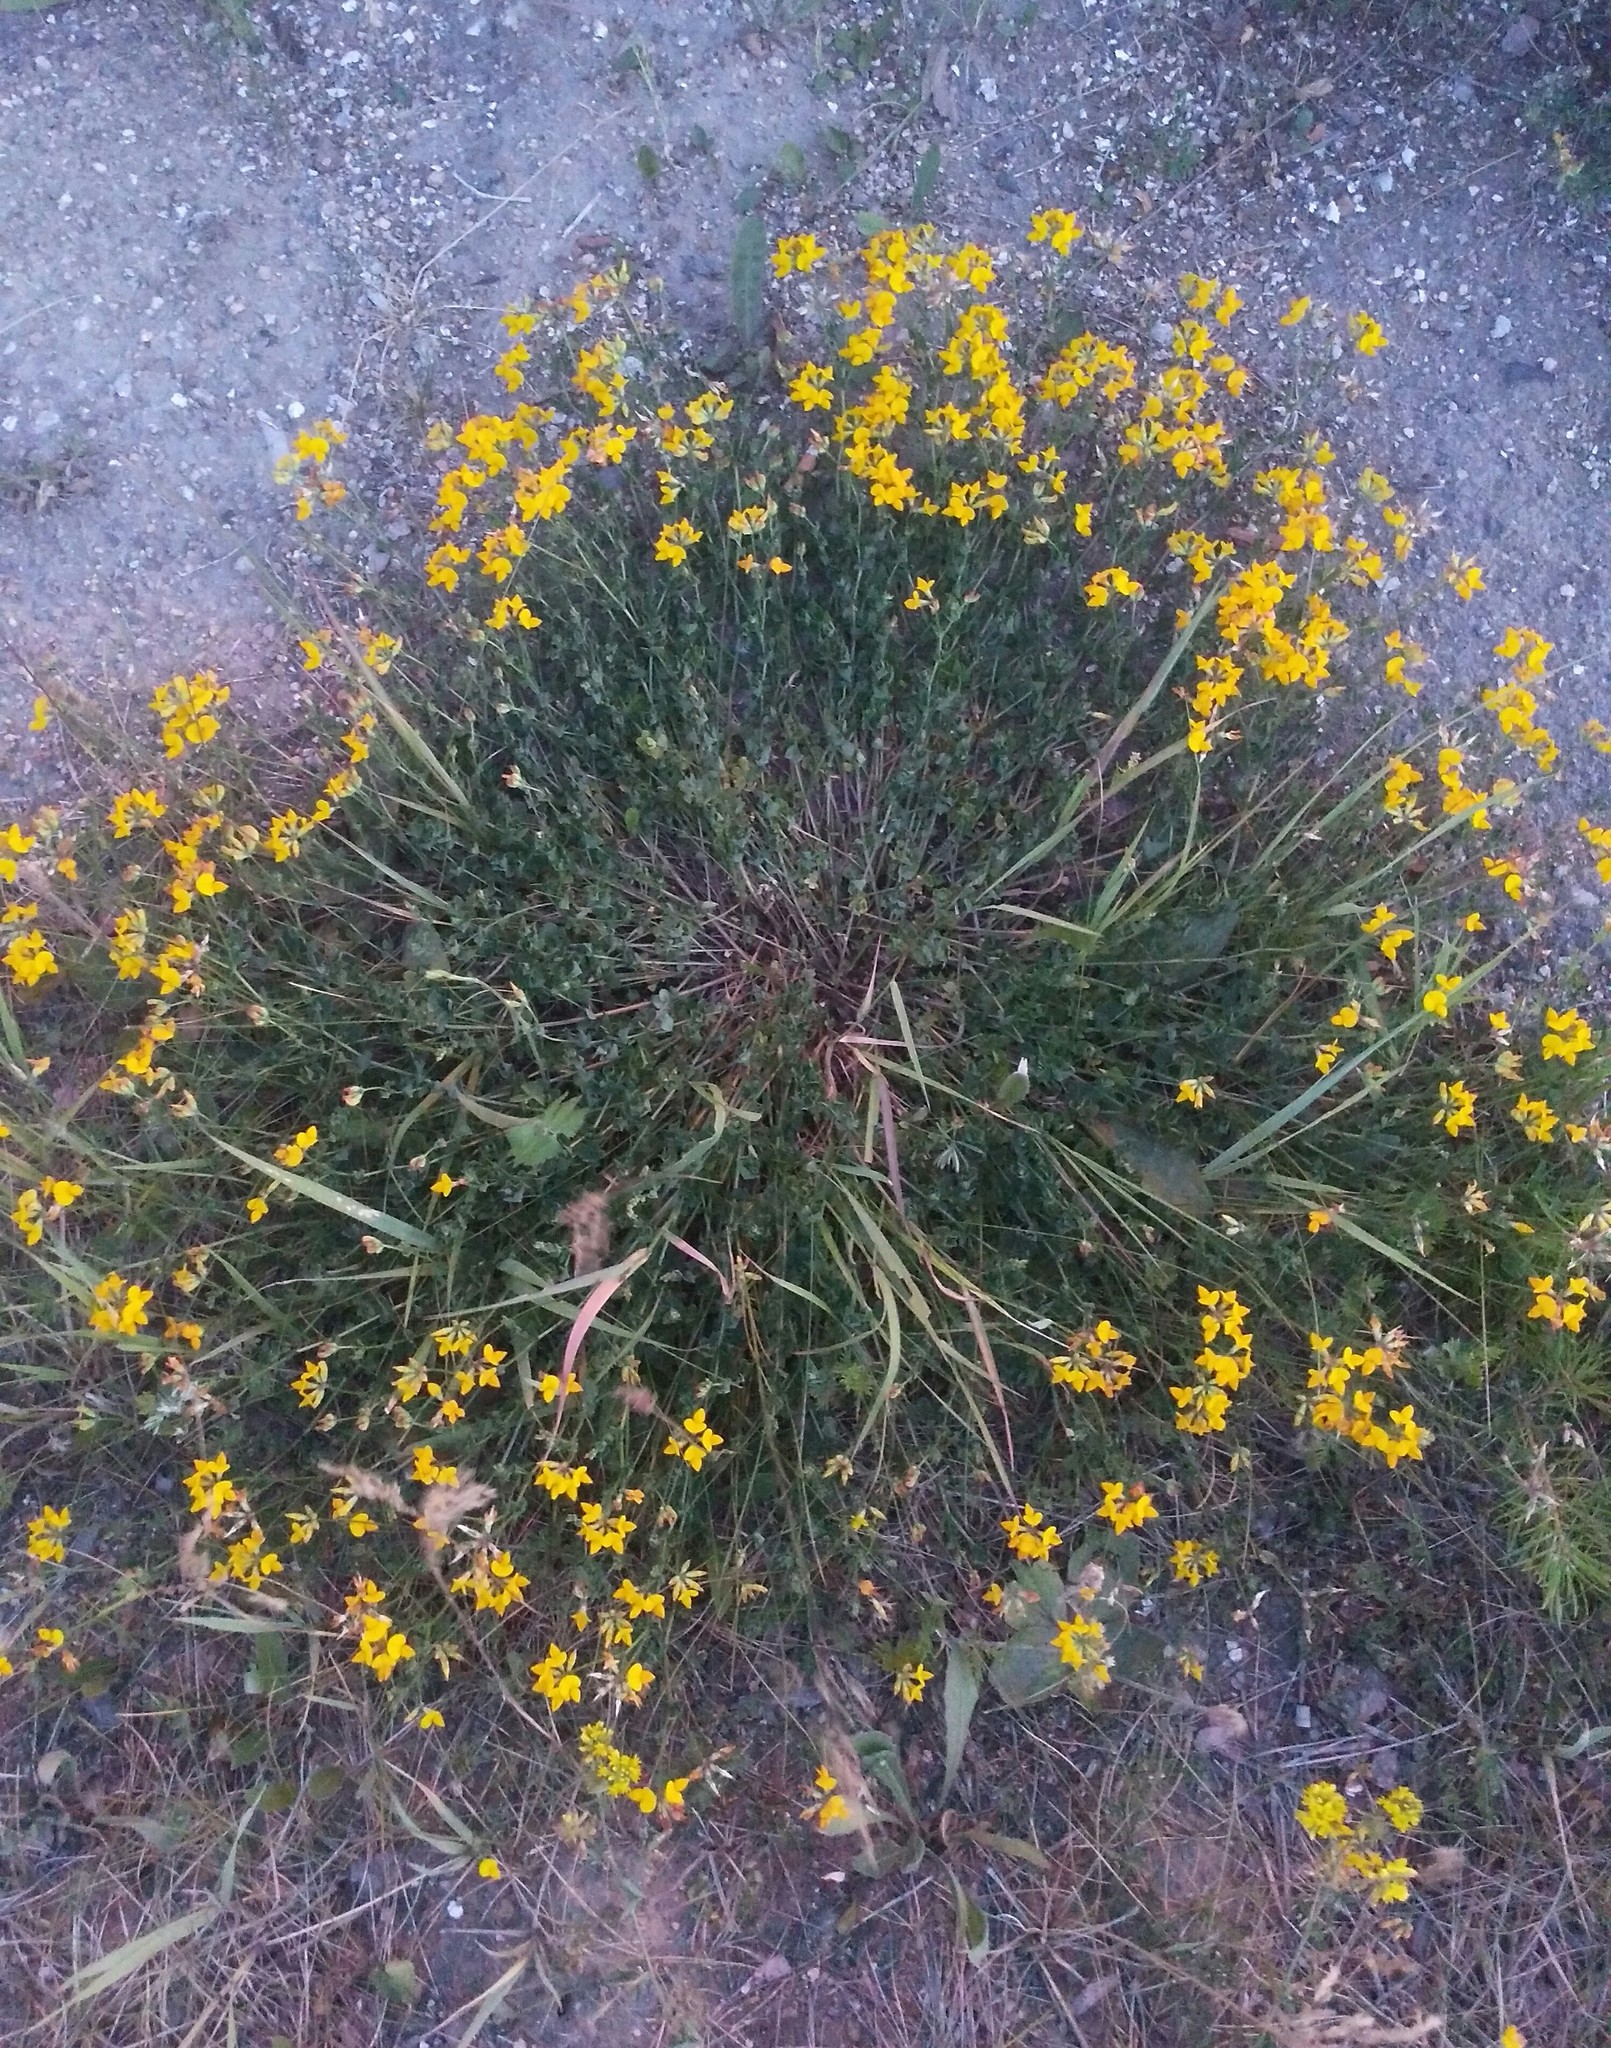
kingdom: Plantae
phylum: Tracheophyta
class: Magnoliopsida
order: Fabales
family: Fabaceae
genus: Lotus
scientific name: Lotus corniculatus
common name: Common bird's-foot-trefoil
